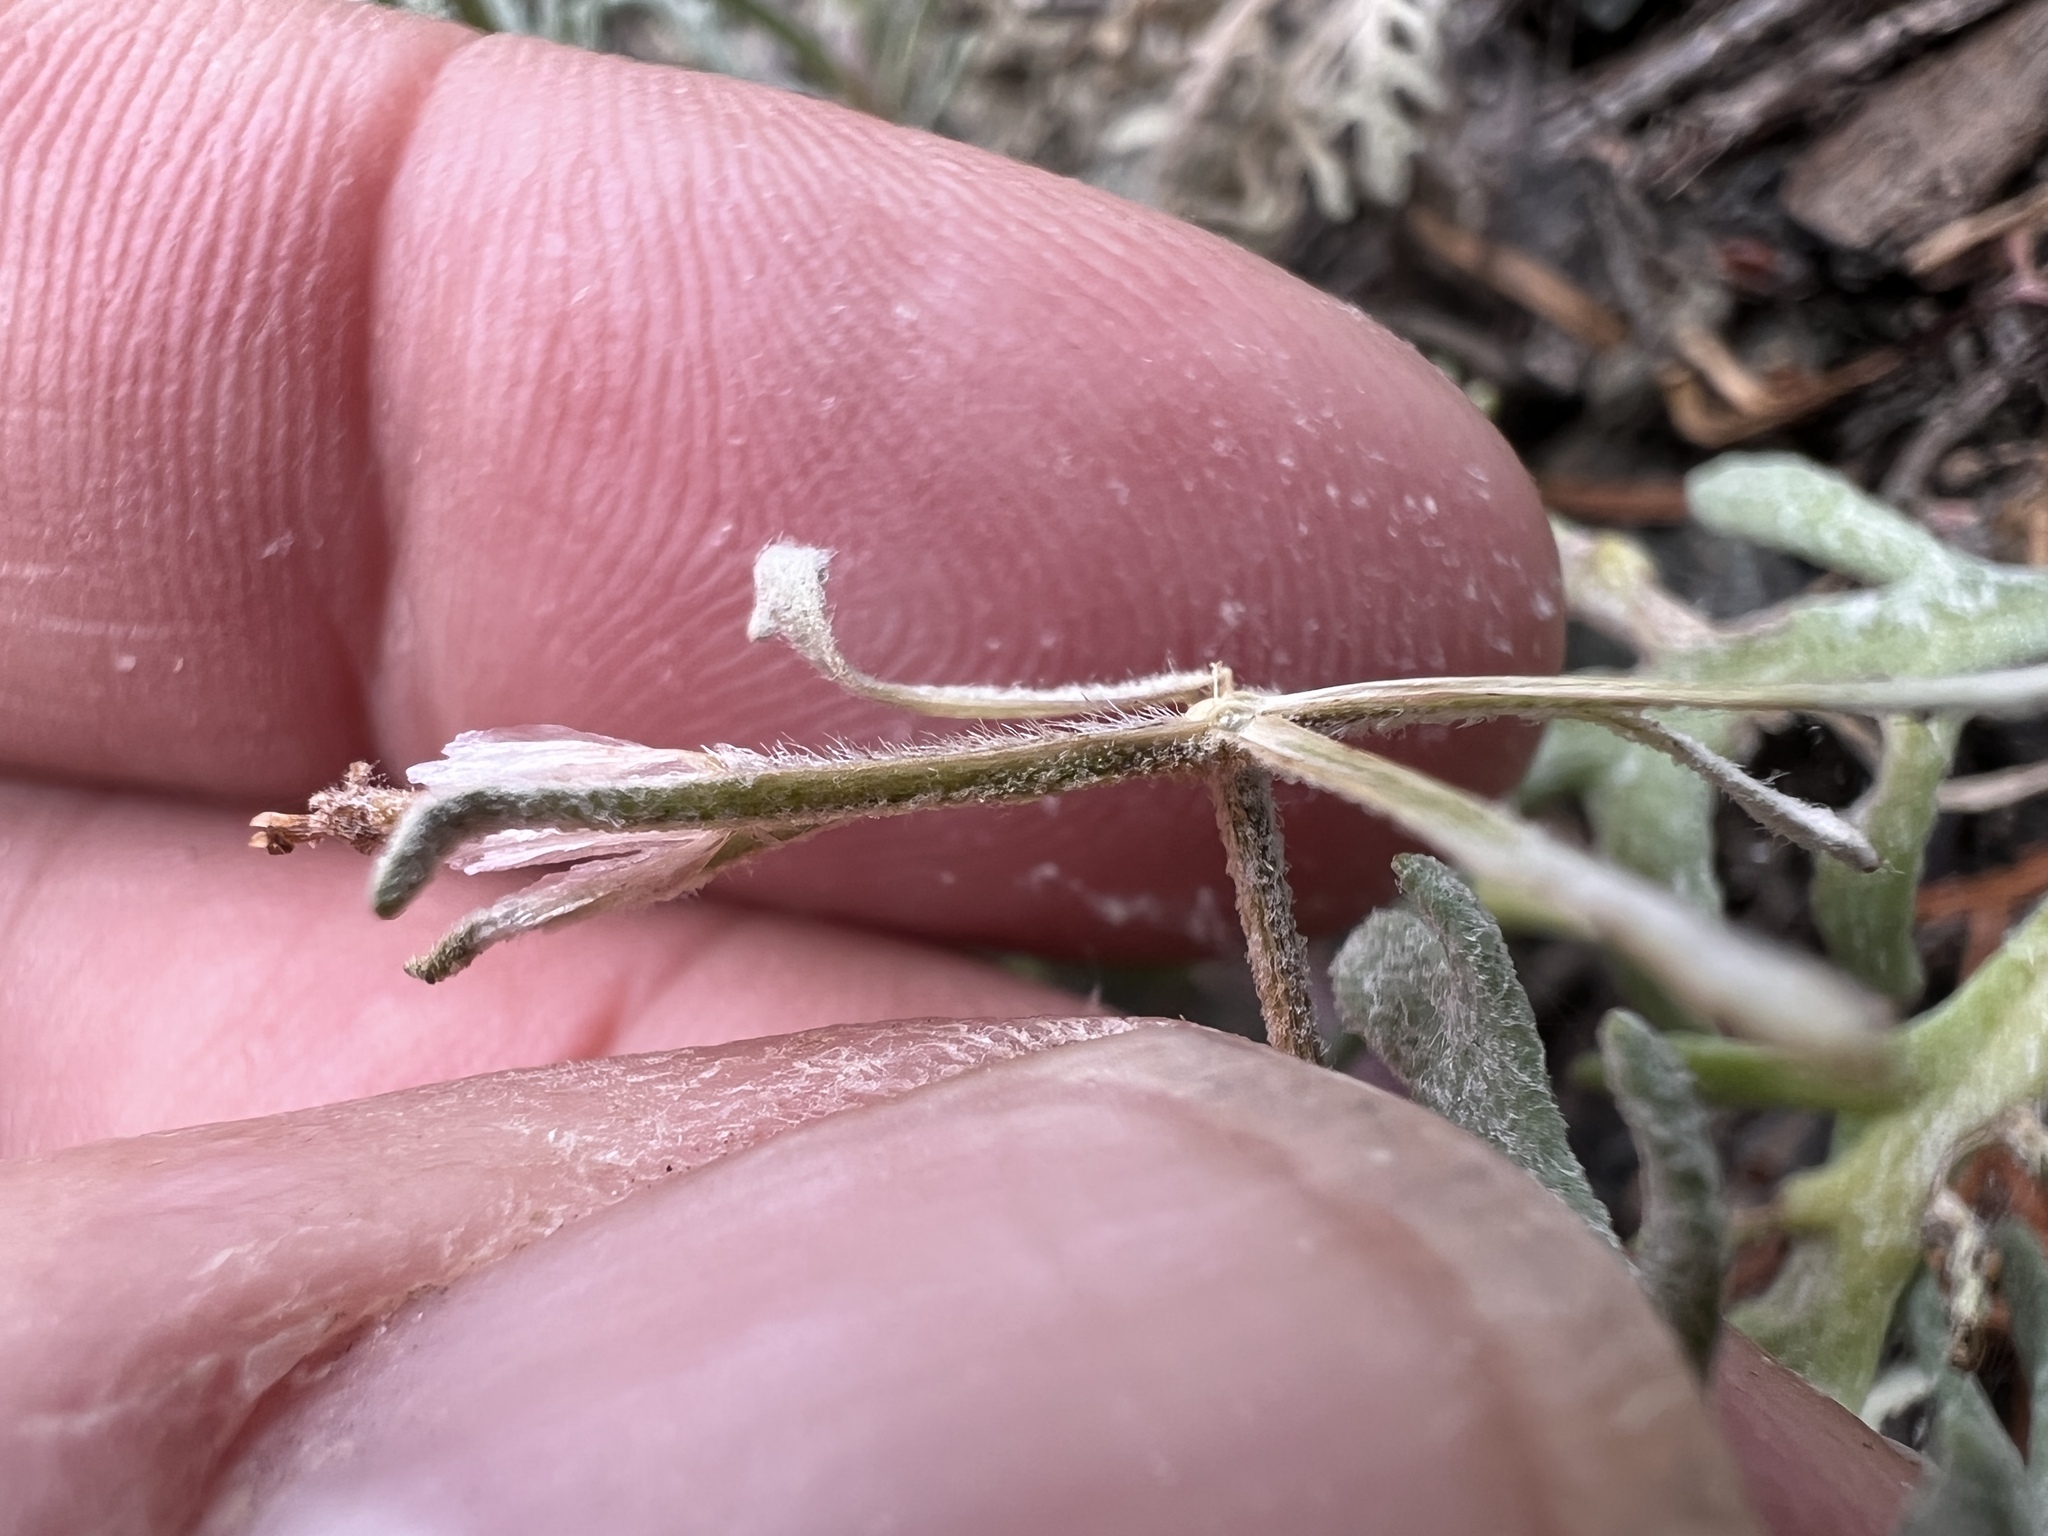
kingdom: Plantae
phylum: Tracheophyta
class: Magnoliopsida
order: Asterales
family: Asteraceae
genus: Chaenactis
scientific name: Chaenactis thompsonii
